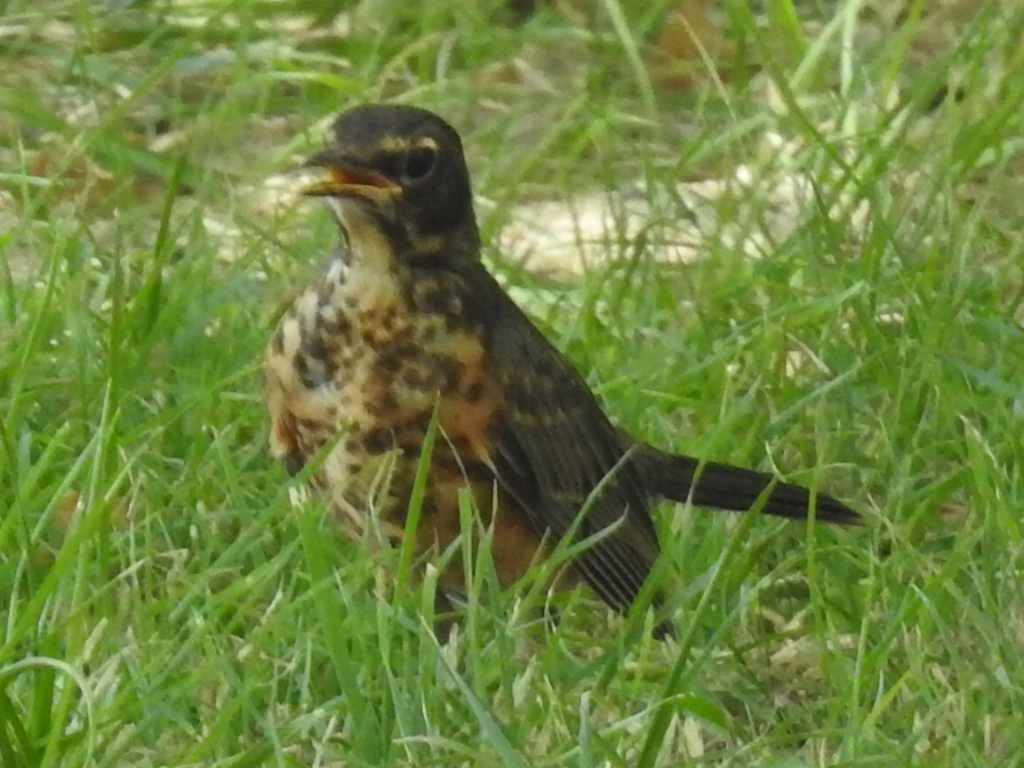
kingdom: Animalia
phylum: Chordata
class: Aves
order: Passeriformes
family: Turdidae
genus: Turdus
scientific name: Turdus migratorius
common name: American robin
